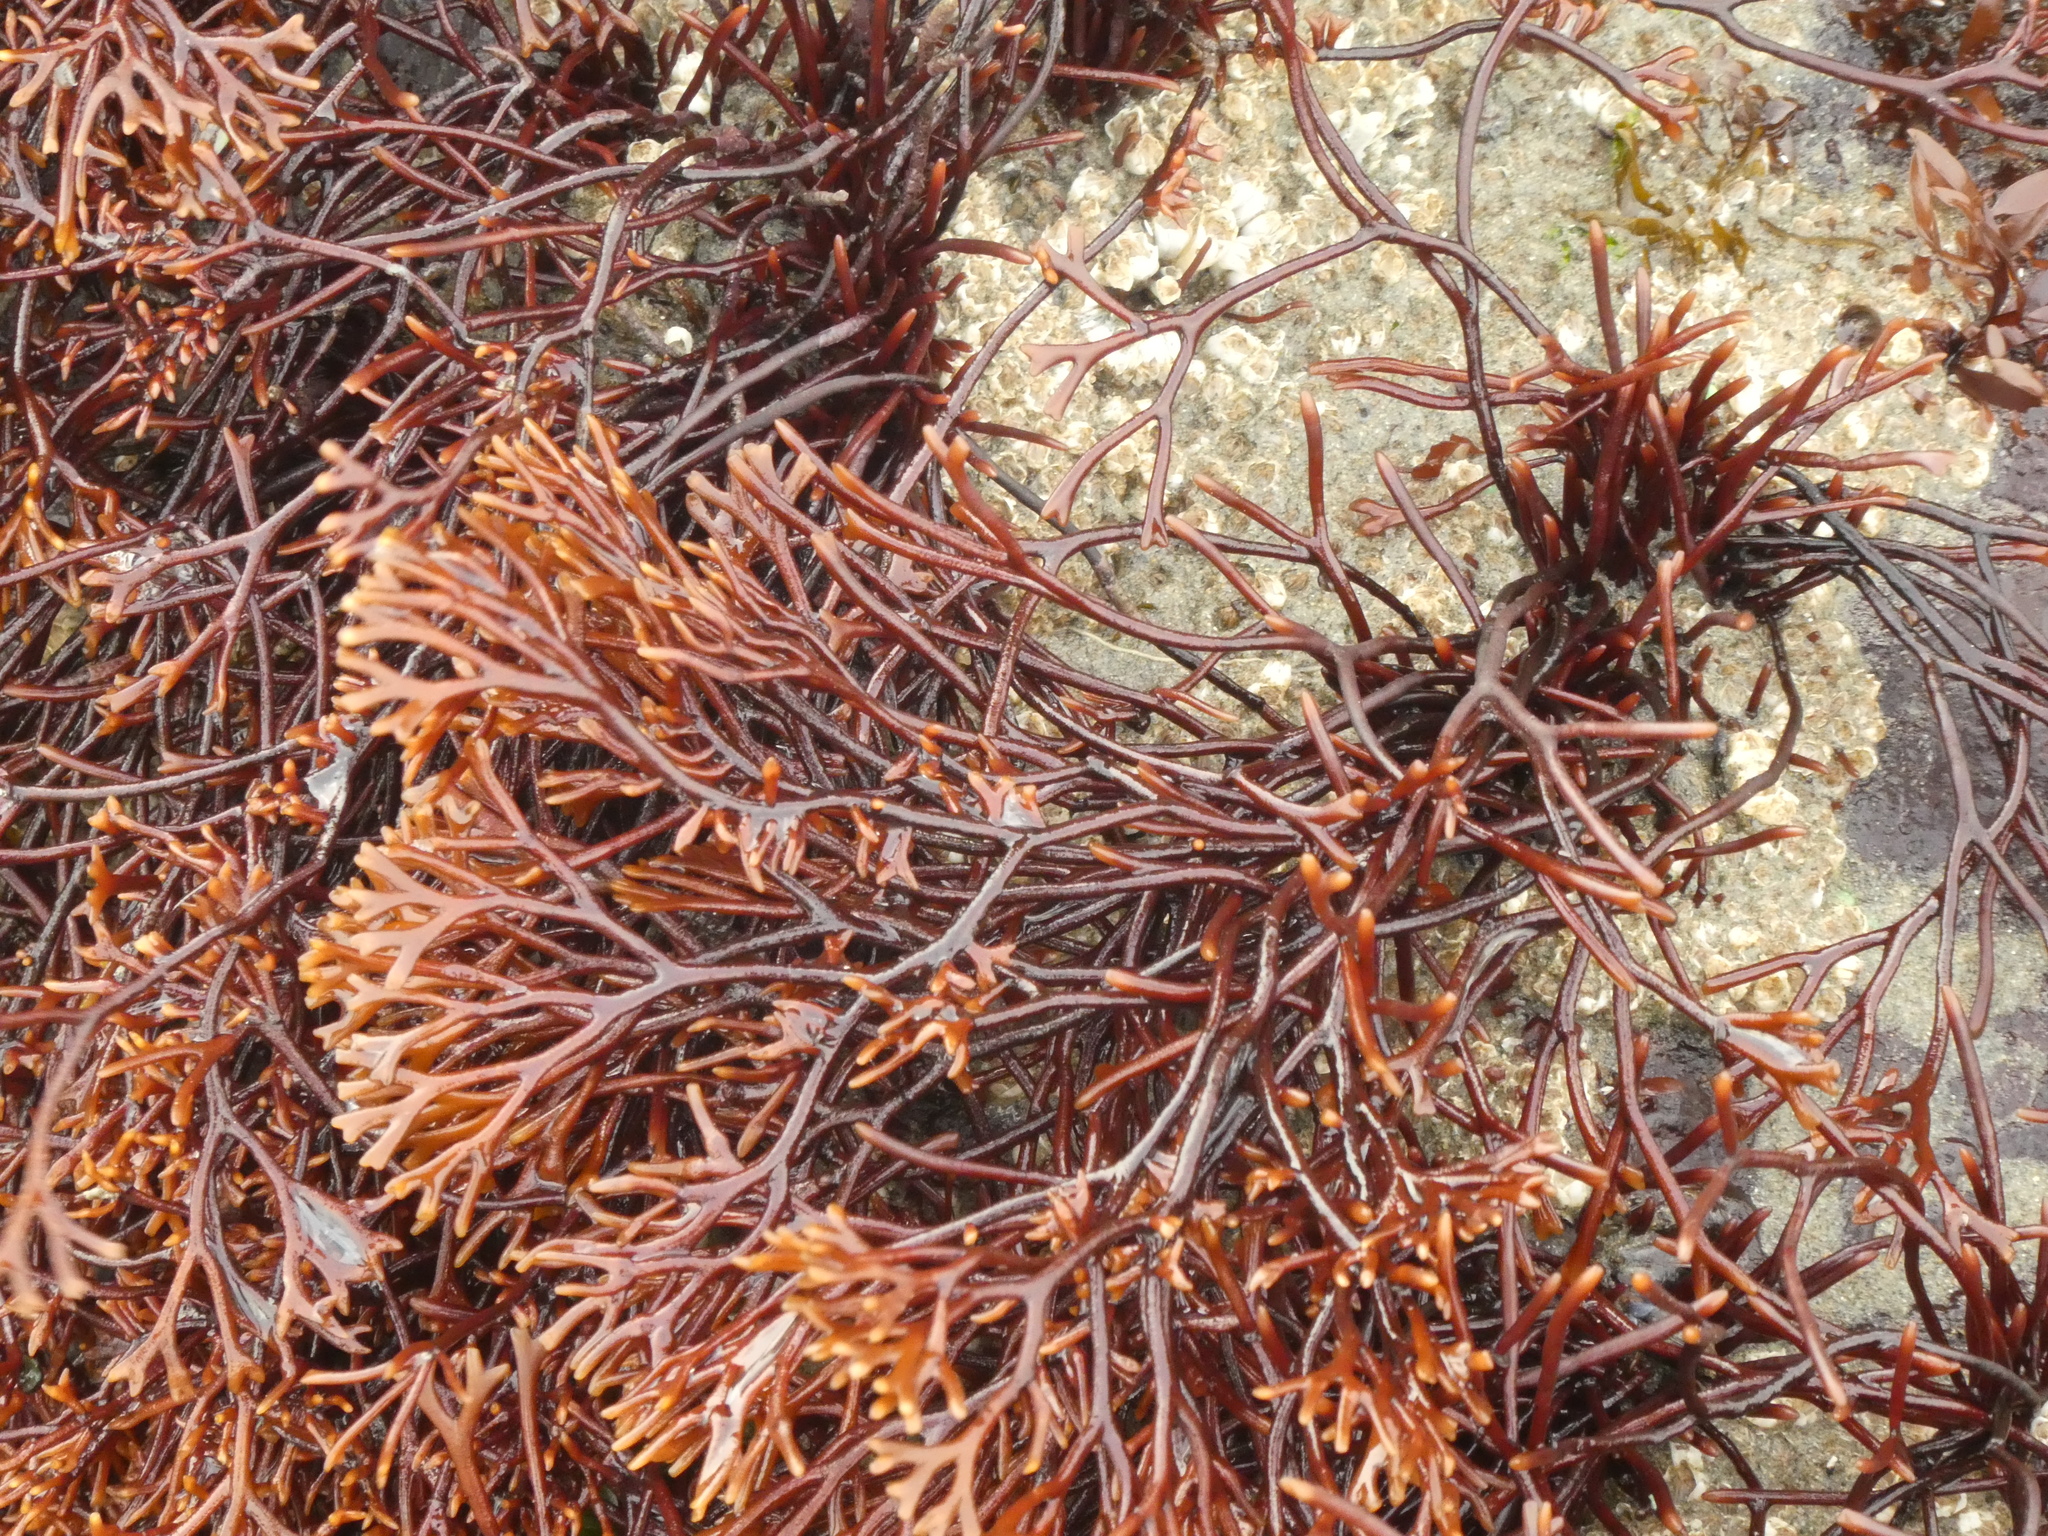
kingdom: Plantae
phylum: Rhodophyta
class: Florideophyceae
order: Gigartinales
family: Phyllophoraceae
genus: Ahnfeltiopsis
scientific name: Ahnfeltiopsis linearis
